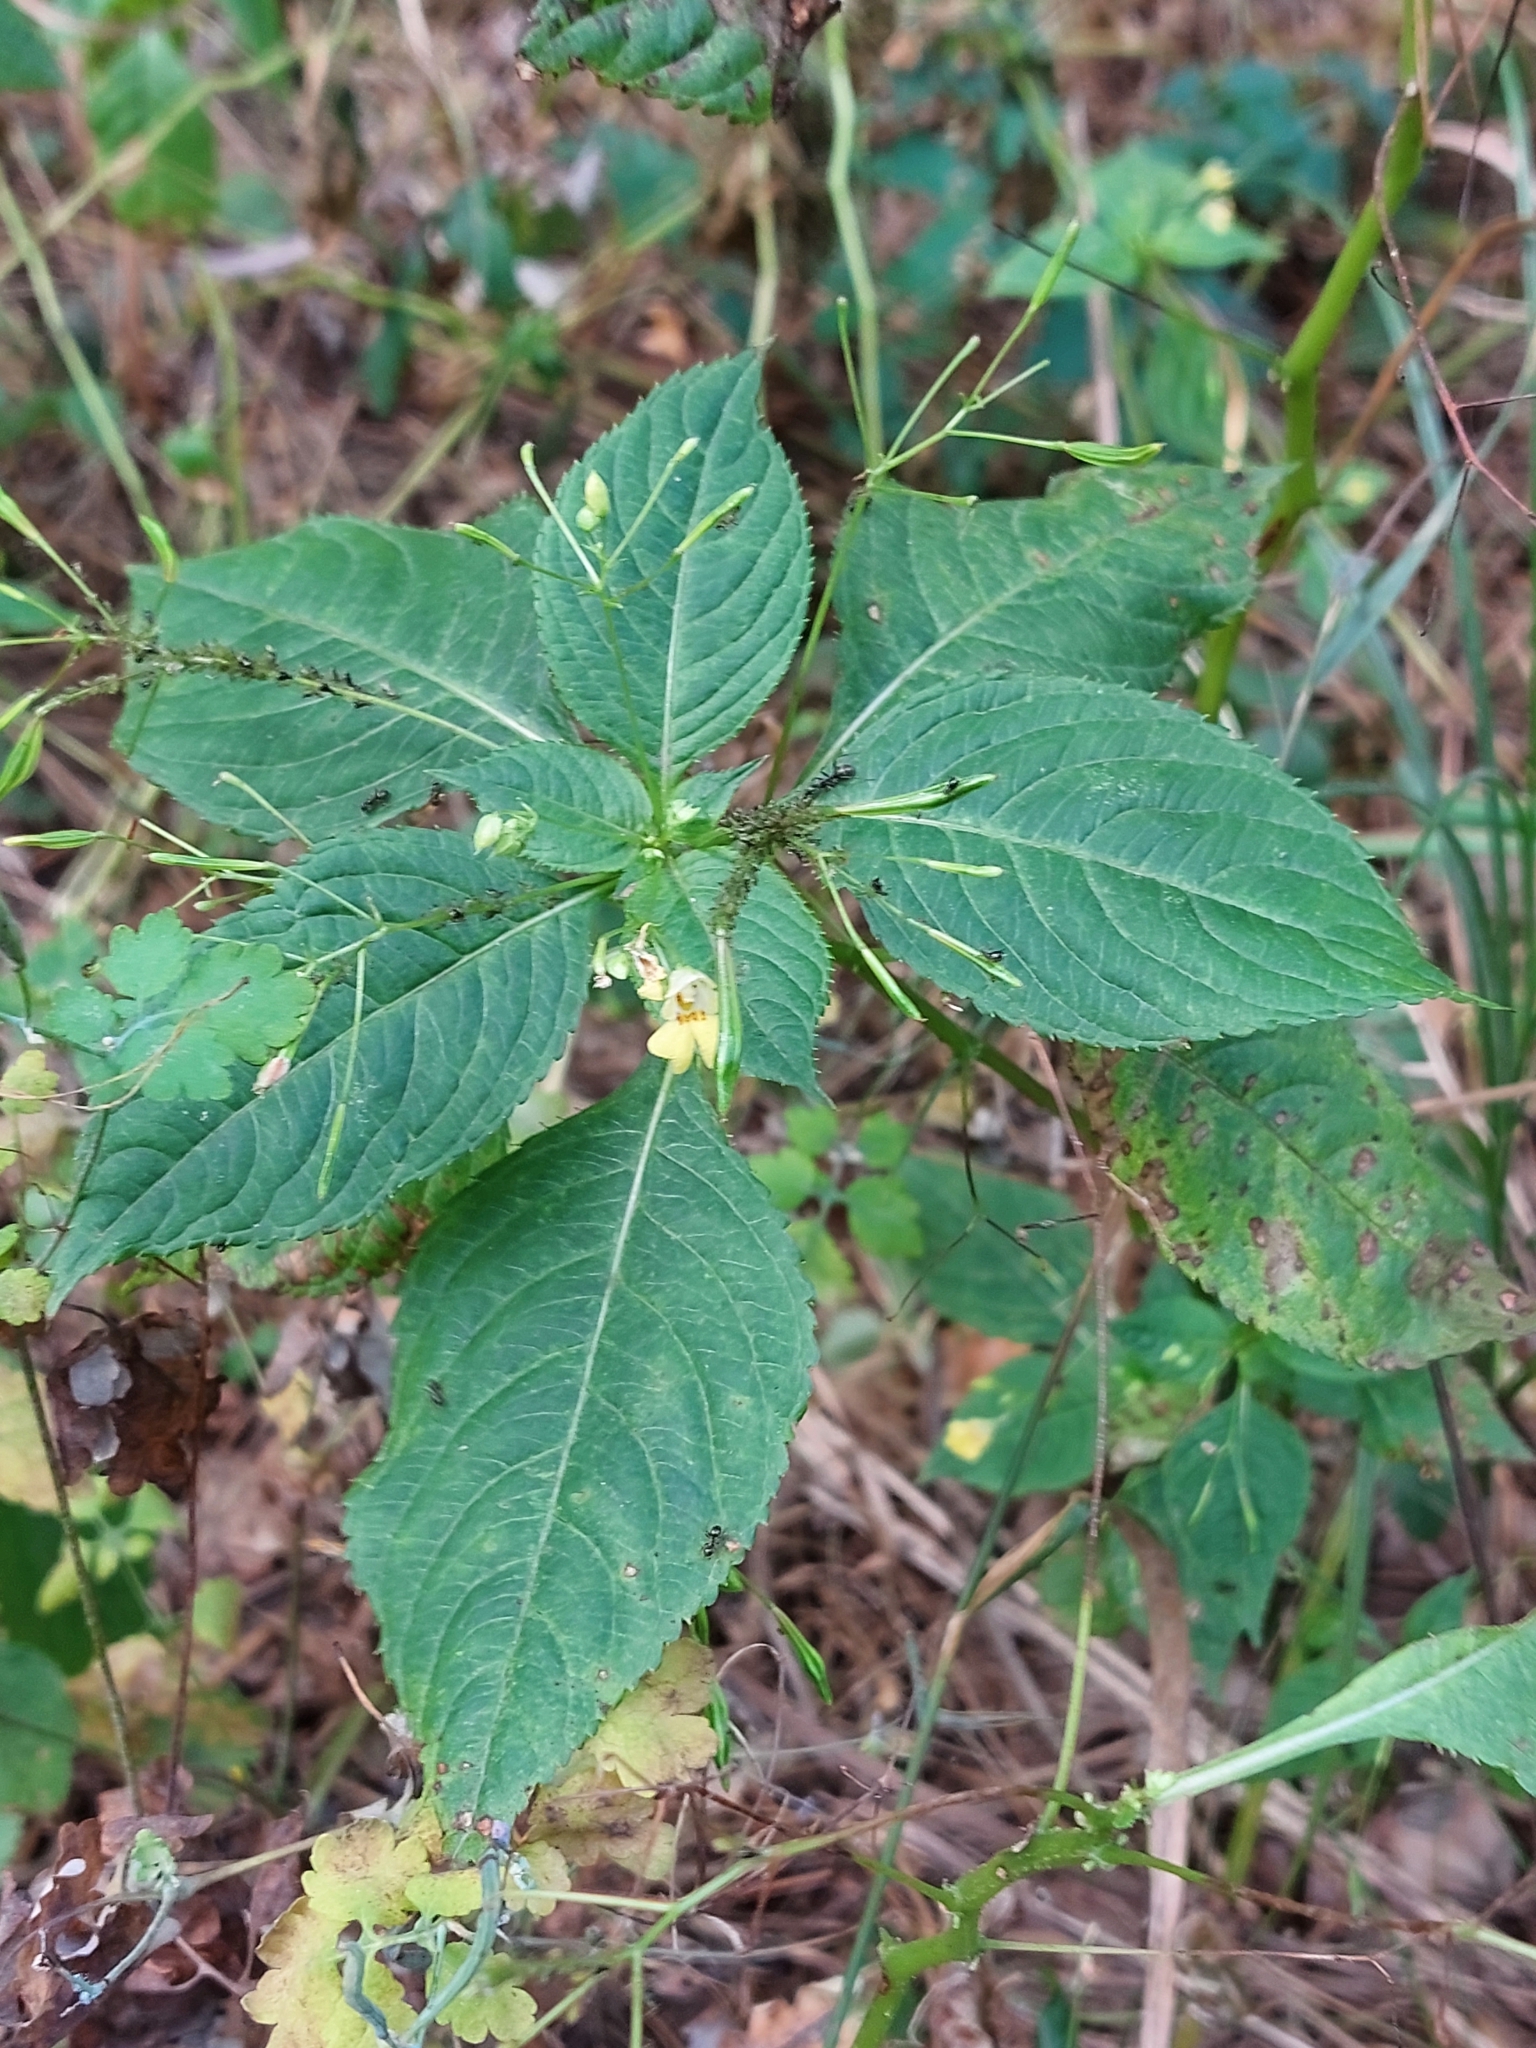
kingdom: Plantae
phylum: Tracheophyta
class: Magnoliopsida
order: Ericales
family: Balsaminaceae
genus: Impatiens
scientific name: Impatiens parviflora
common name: Small balsam
